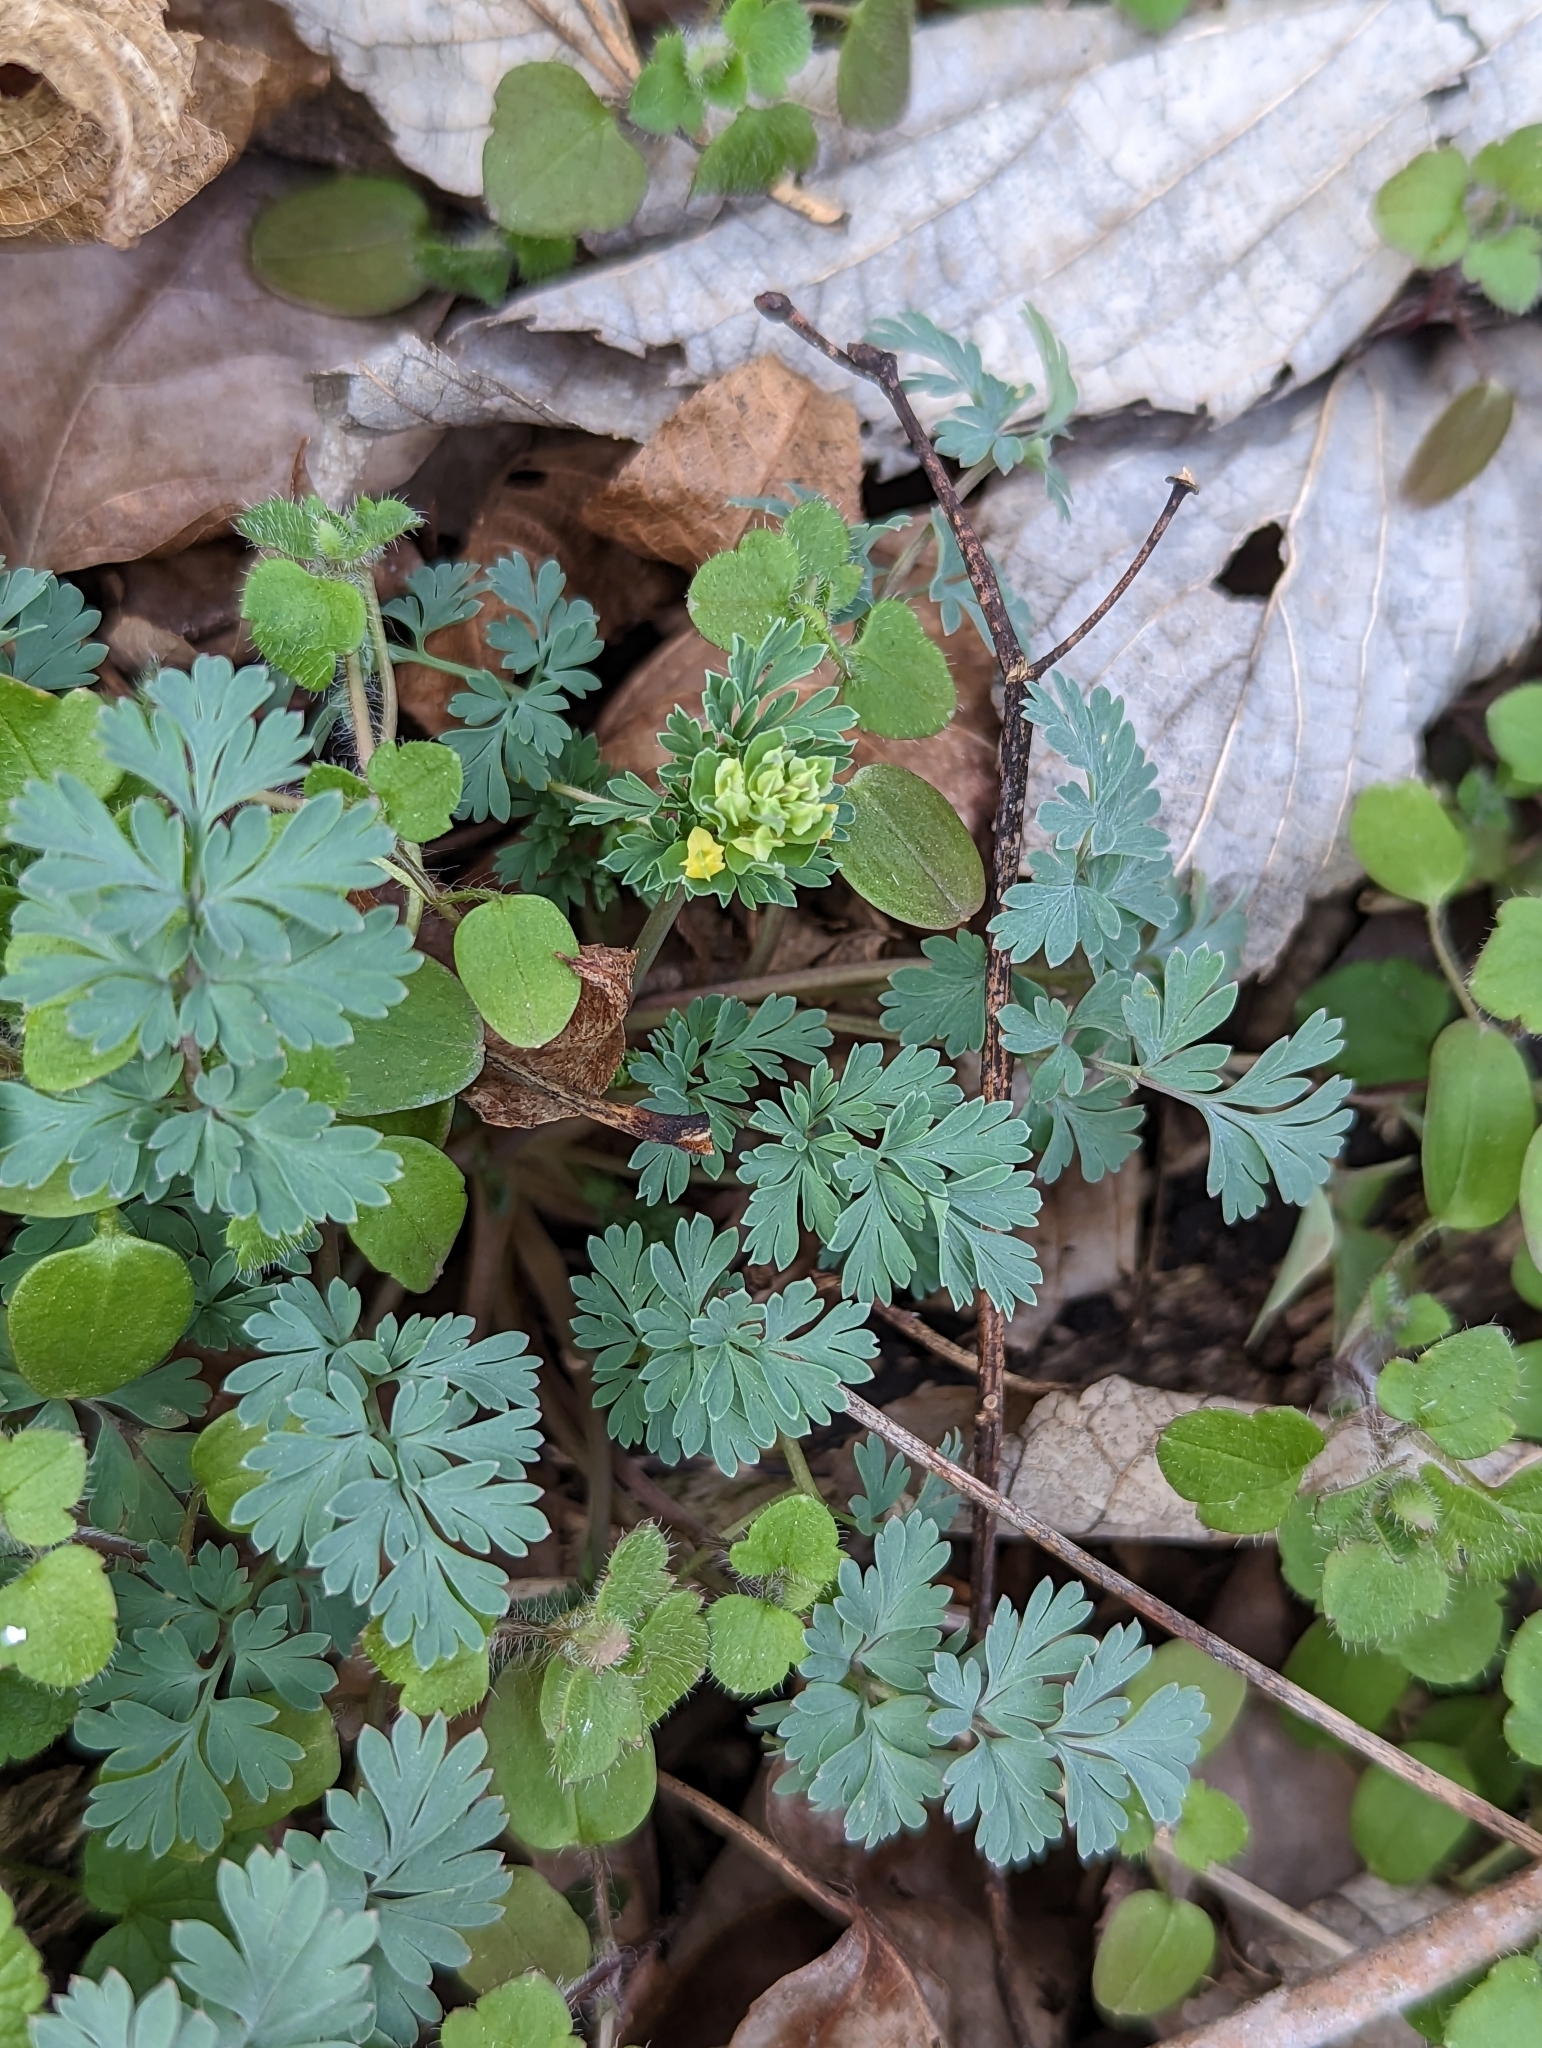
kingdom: Plantae
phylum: Tracheophyta
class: Magnoliopsida
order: Ranunculales
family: Papaveraceae
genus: Corydalis
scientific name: Corydalis flavula
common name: Yellow corydalis
